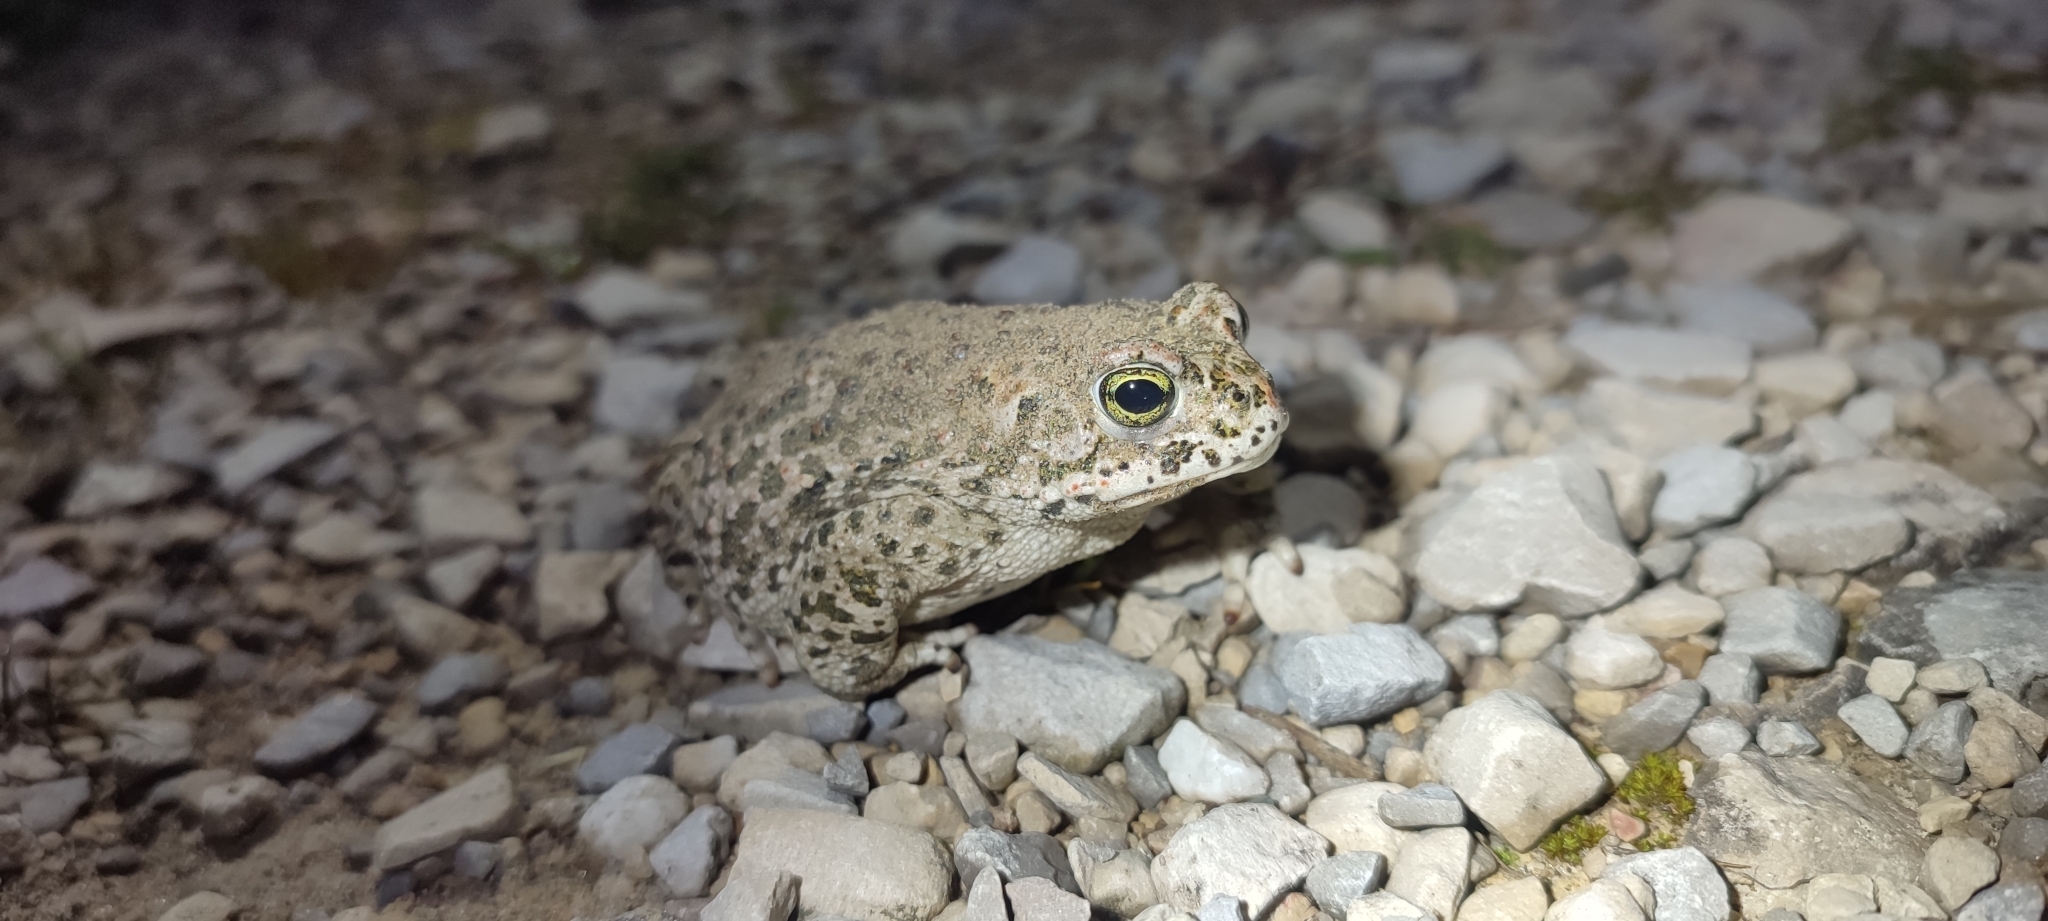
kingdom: Animalia
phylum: Chordata
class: Amphibia
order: Anura
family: Bufonidae
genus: Epidalea
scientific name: Epidalea calamita
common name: Natterjack toad
